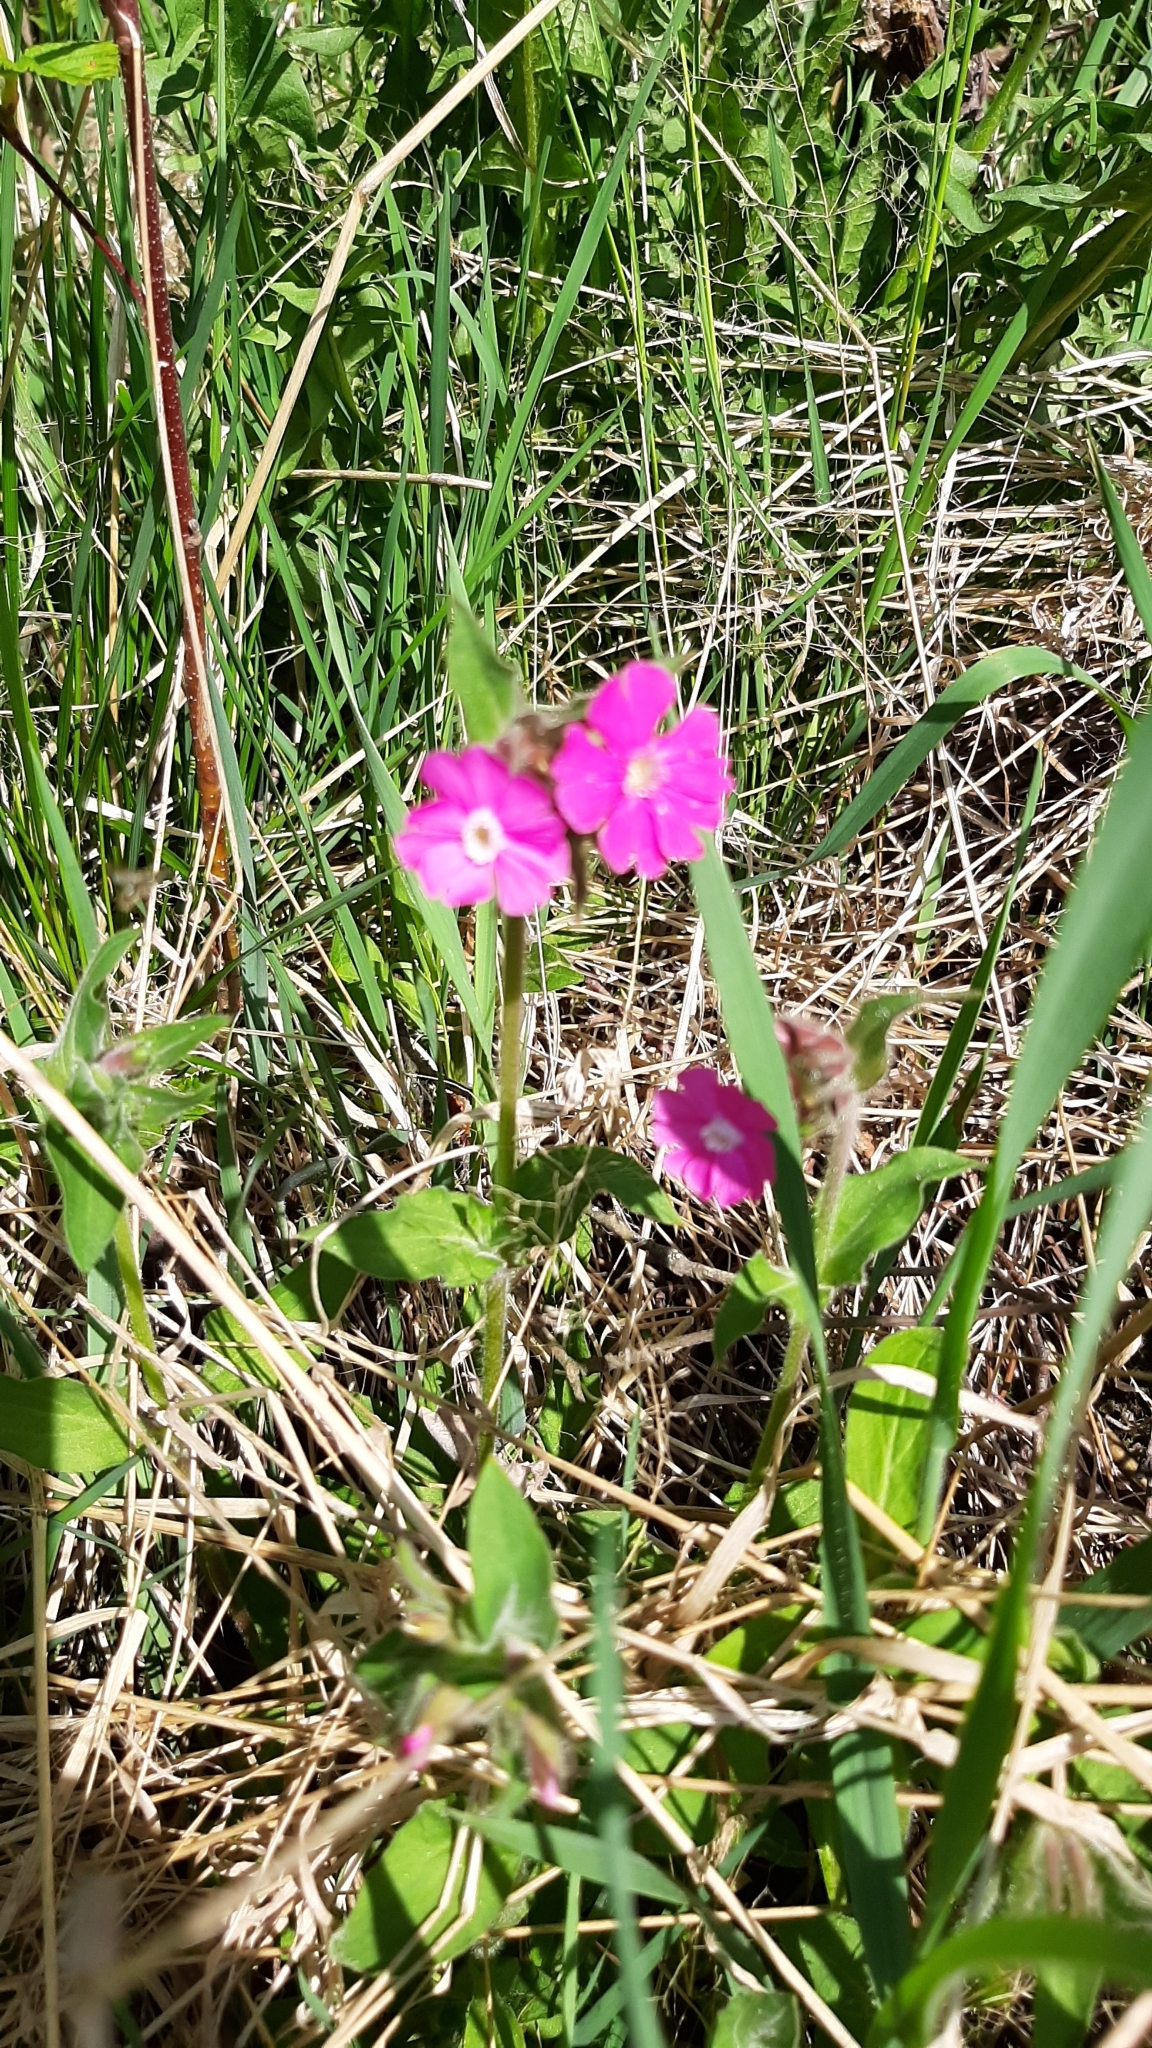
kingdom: Plantae
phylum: Tracheophyta
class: Magnoliopsida
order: Caryophyllales
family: Caryophyllaceae
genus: Silene
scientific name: Silene dioica
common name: Red campion
